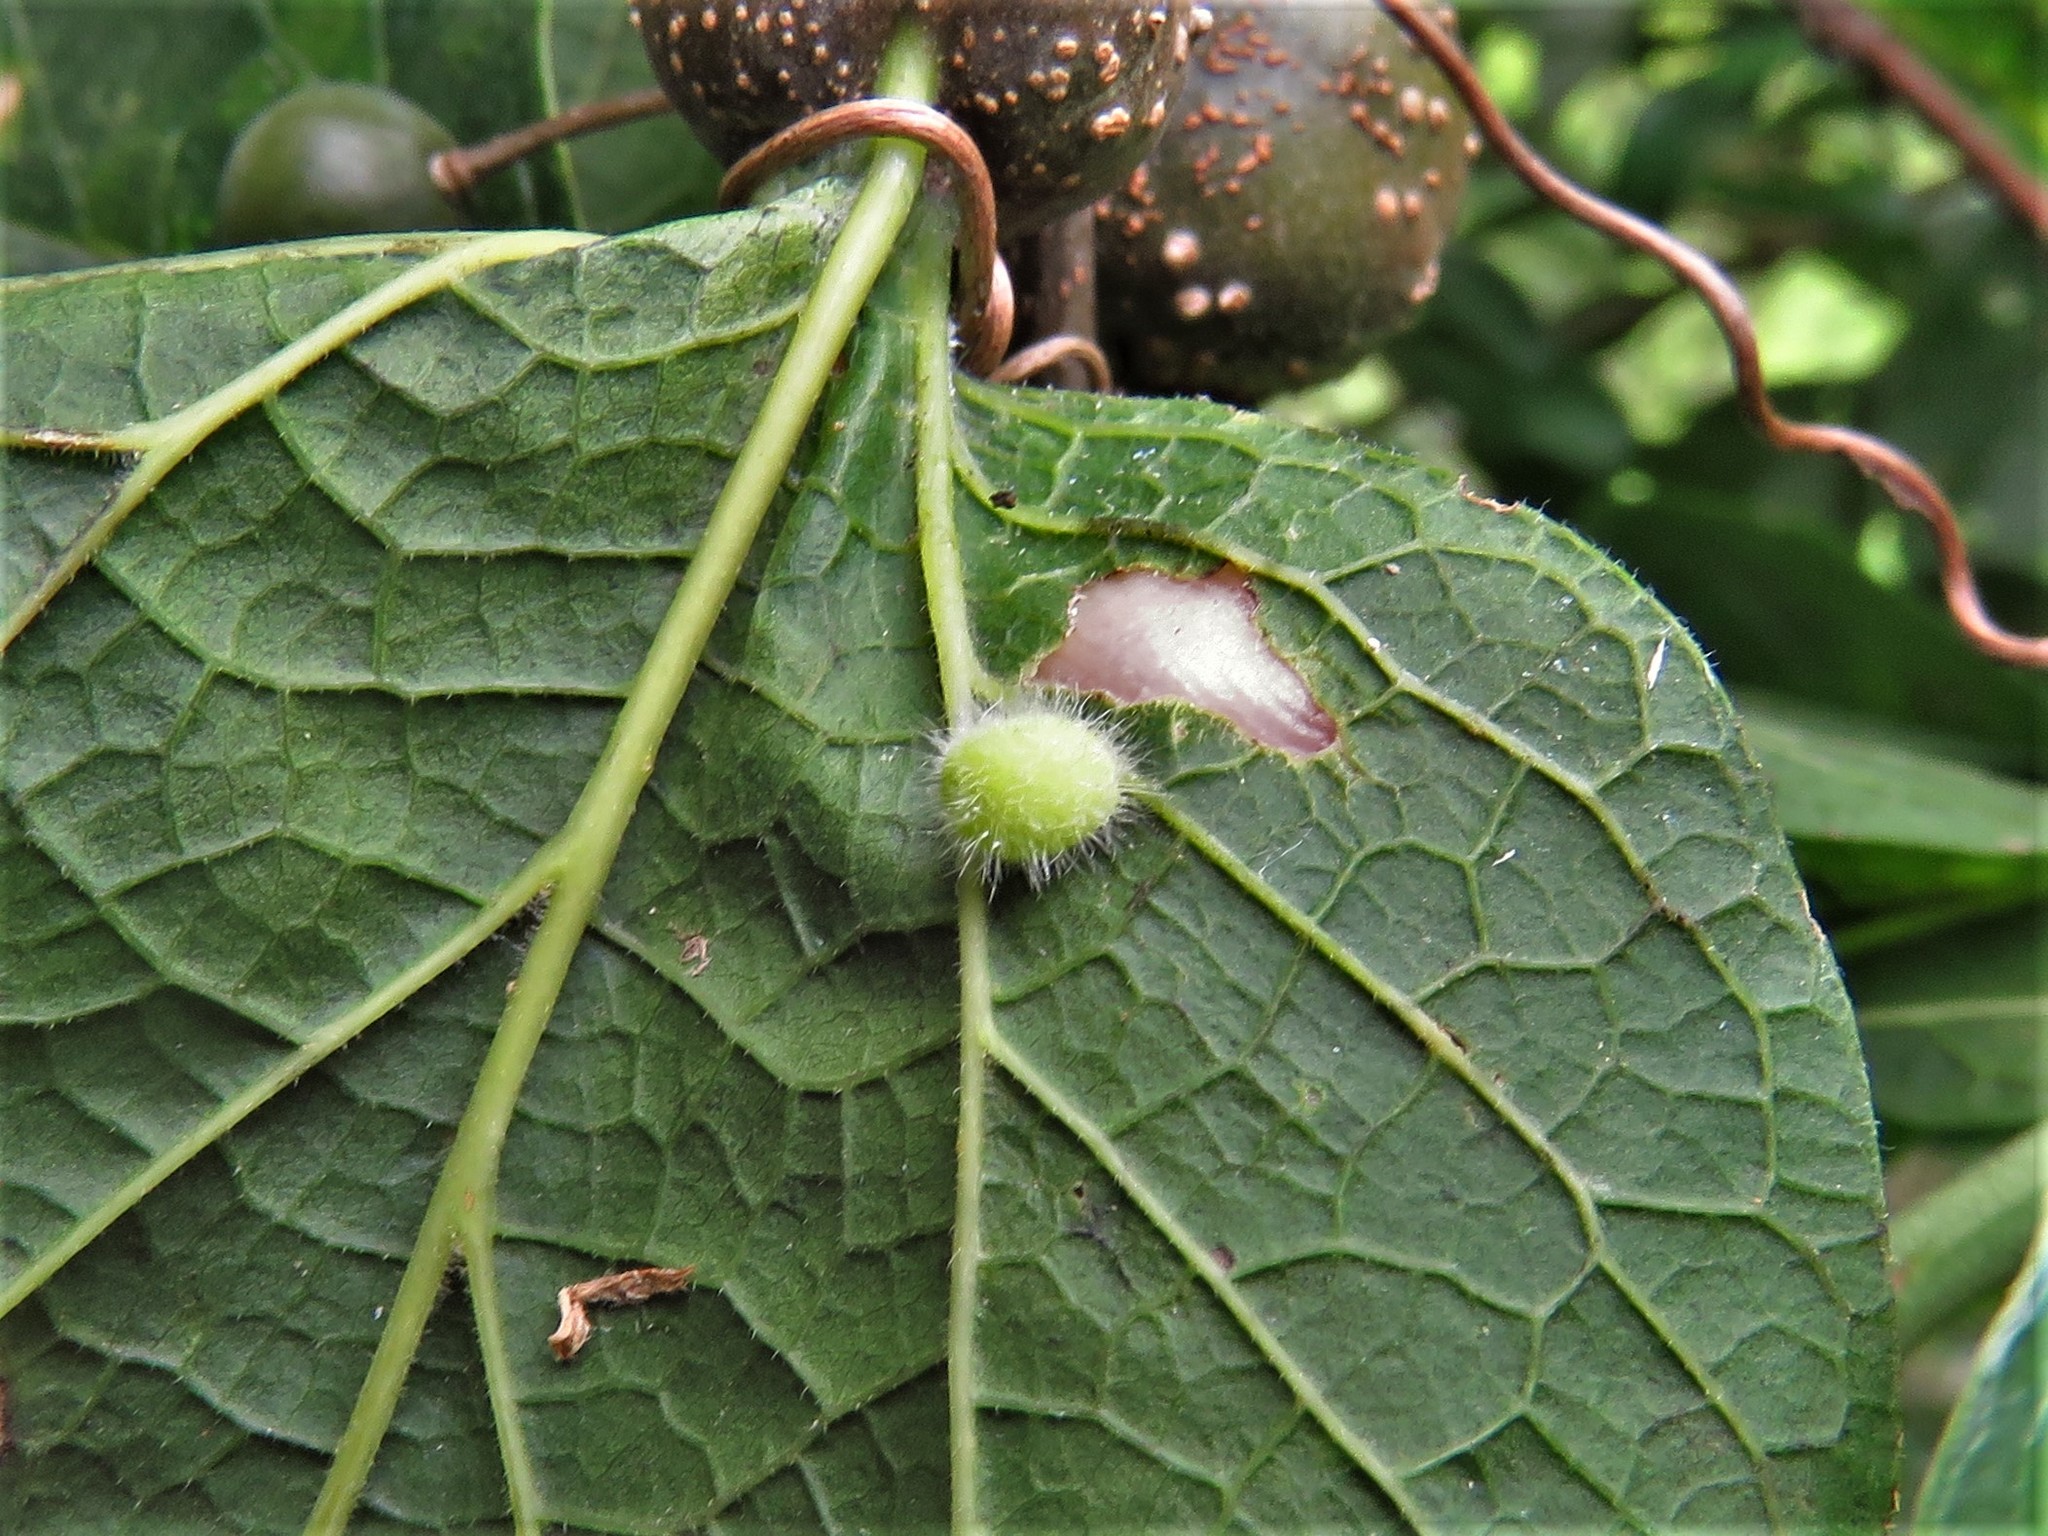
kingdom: Animalia
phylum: Arthropoda
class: Insecta
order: Diptera
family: Cecidomyiidae
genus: Celticecis
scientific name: Celticecis pubescens
